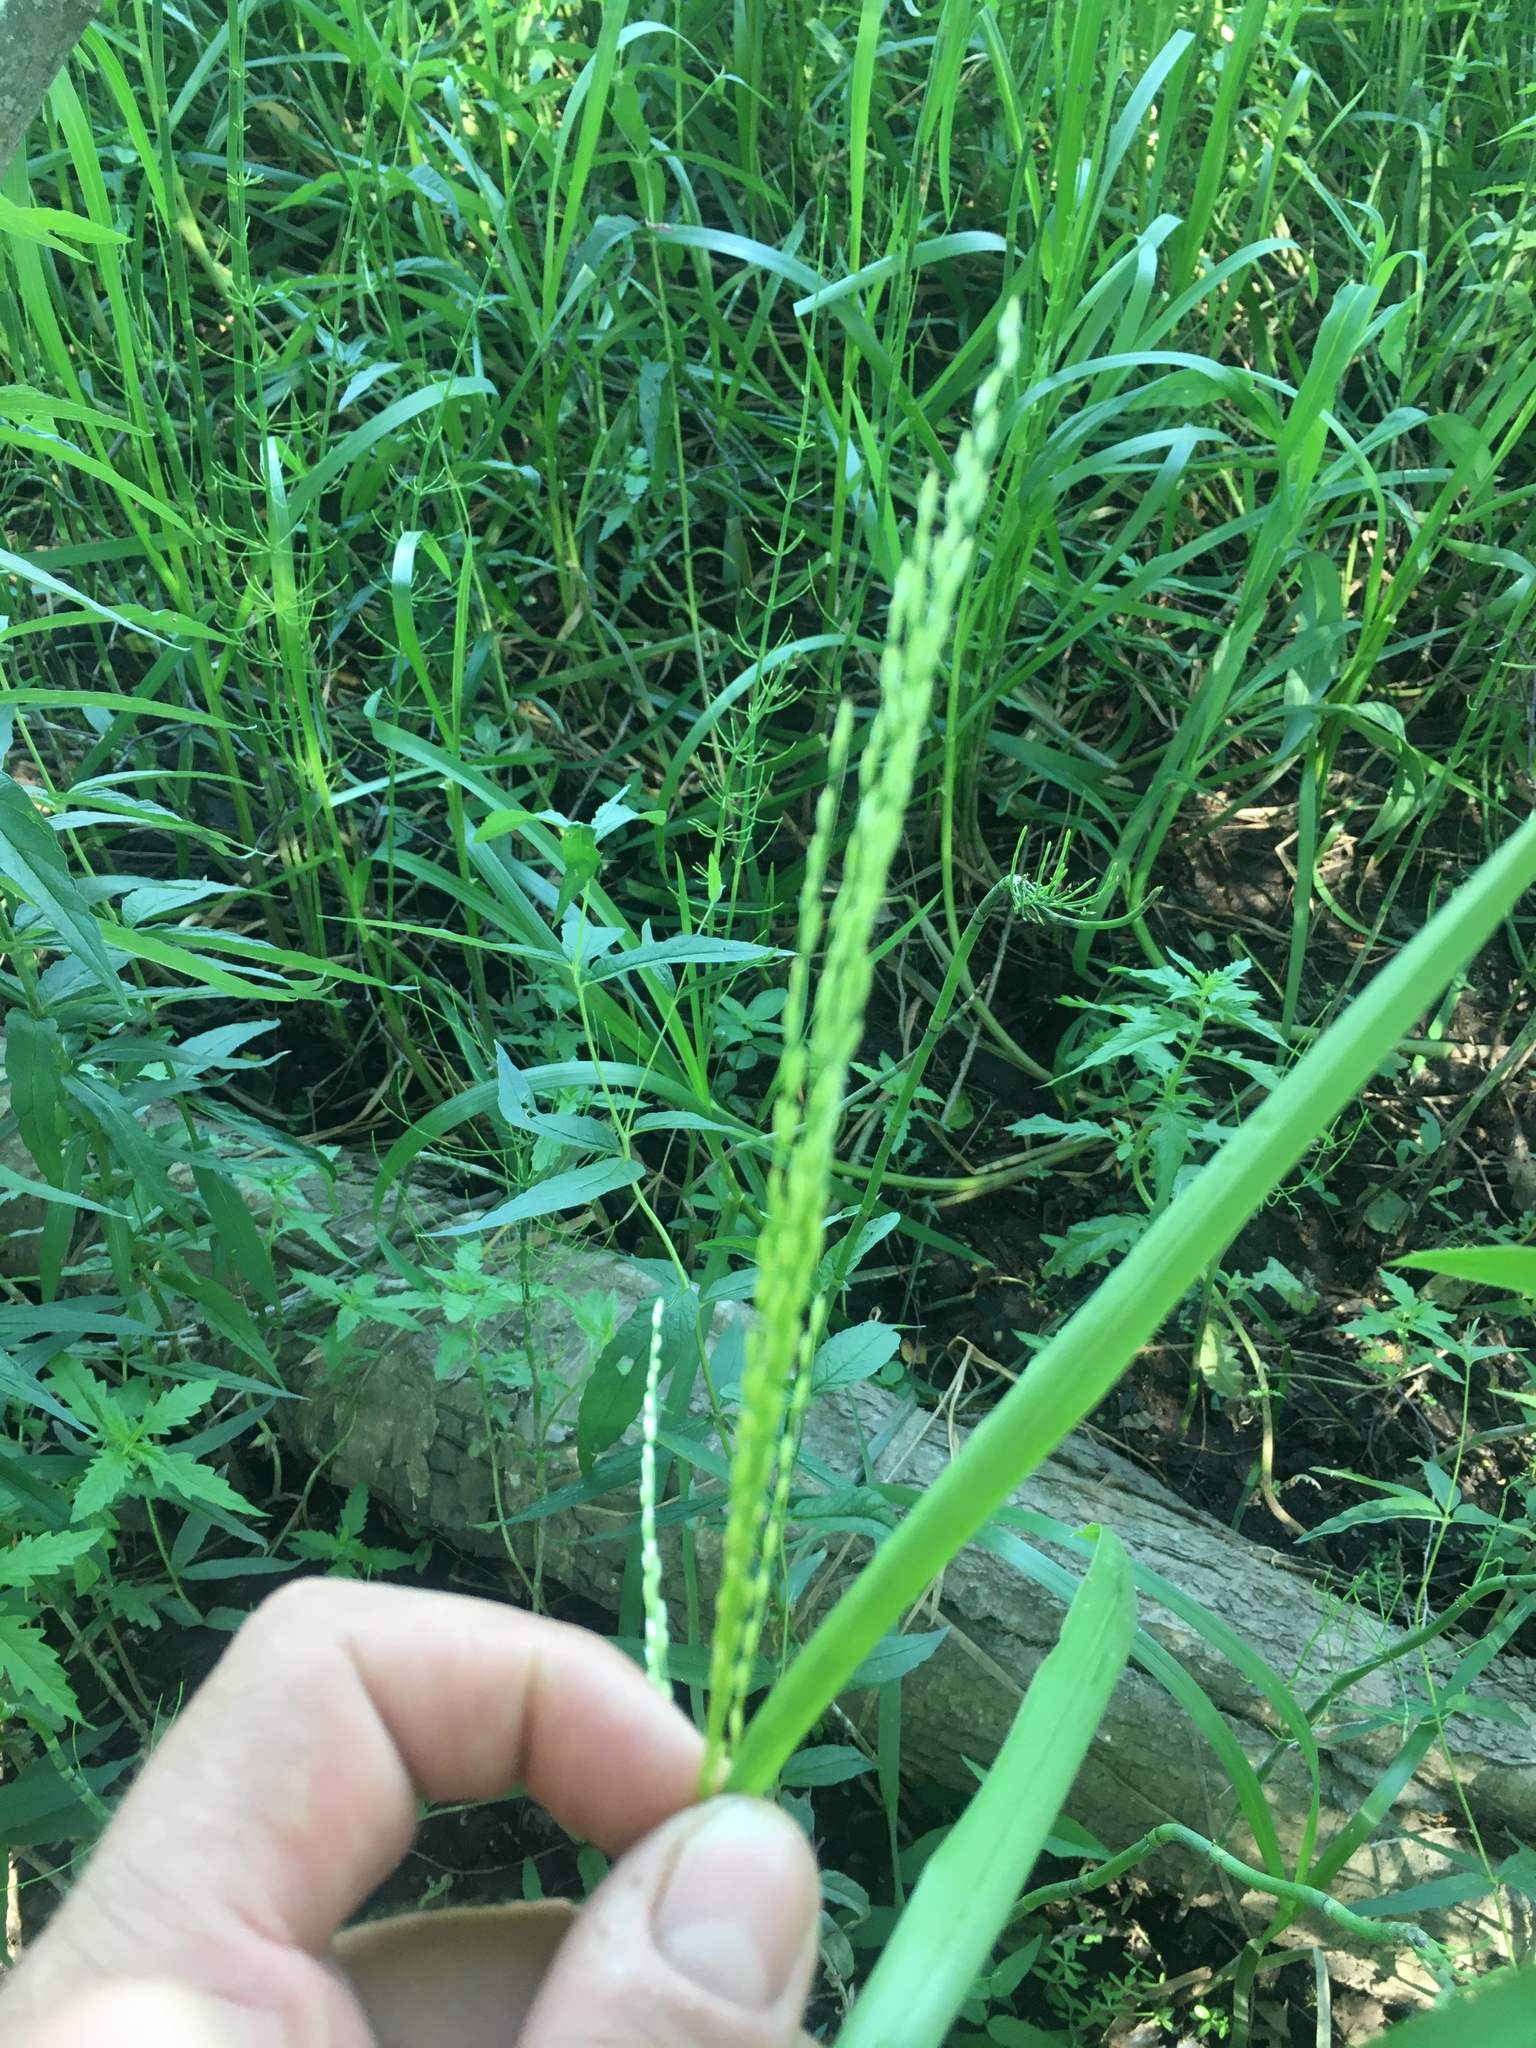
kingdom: Plantae
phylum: Tracheophyta
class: Liliopsida
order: Poales
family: Poaceae
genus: Poa
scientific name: Poa palustris
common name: Swamp meadow-grass
